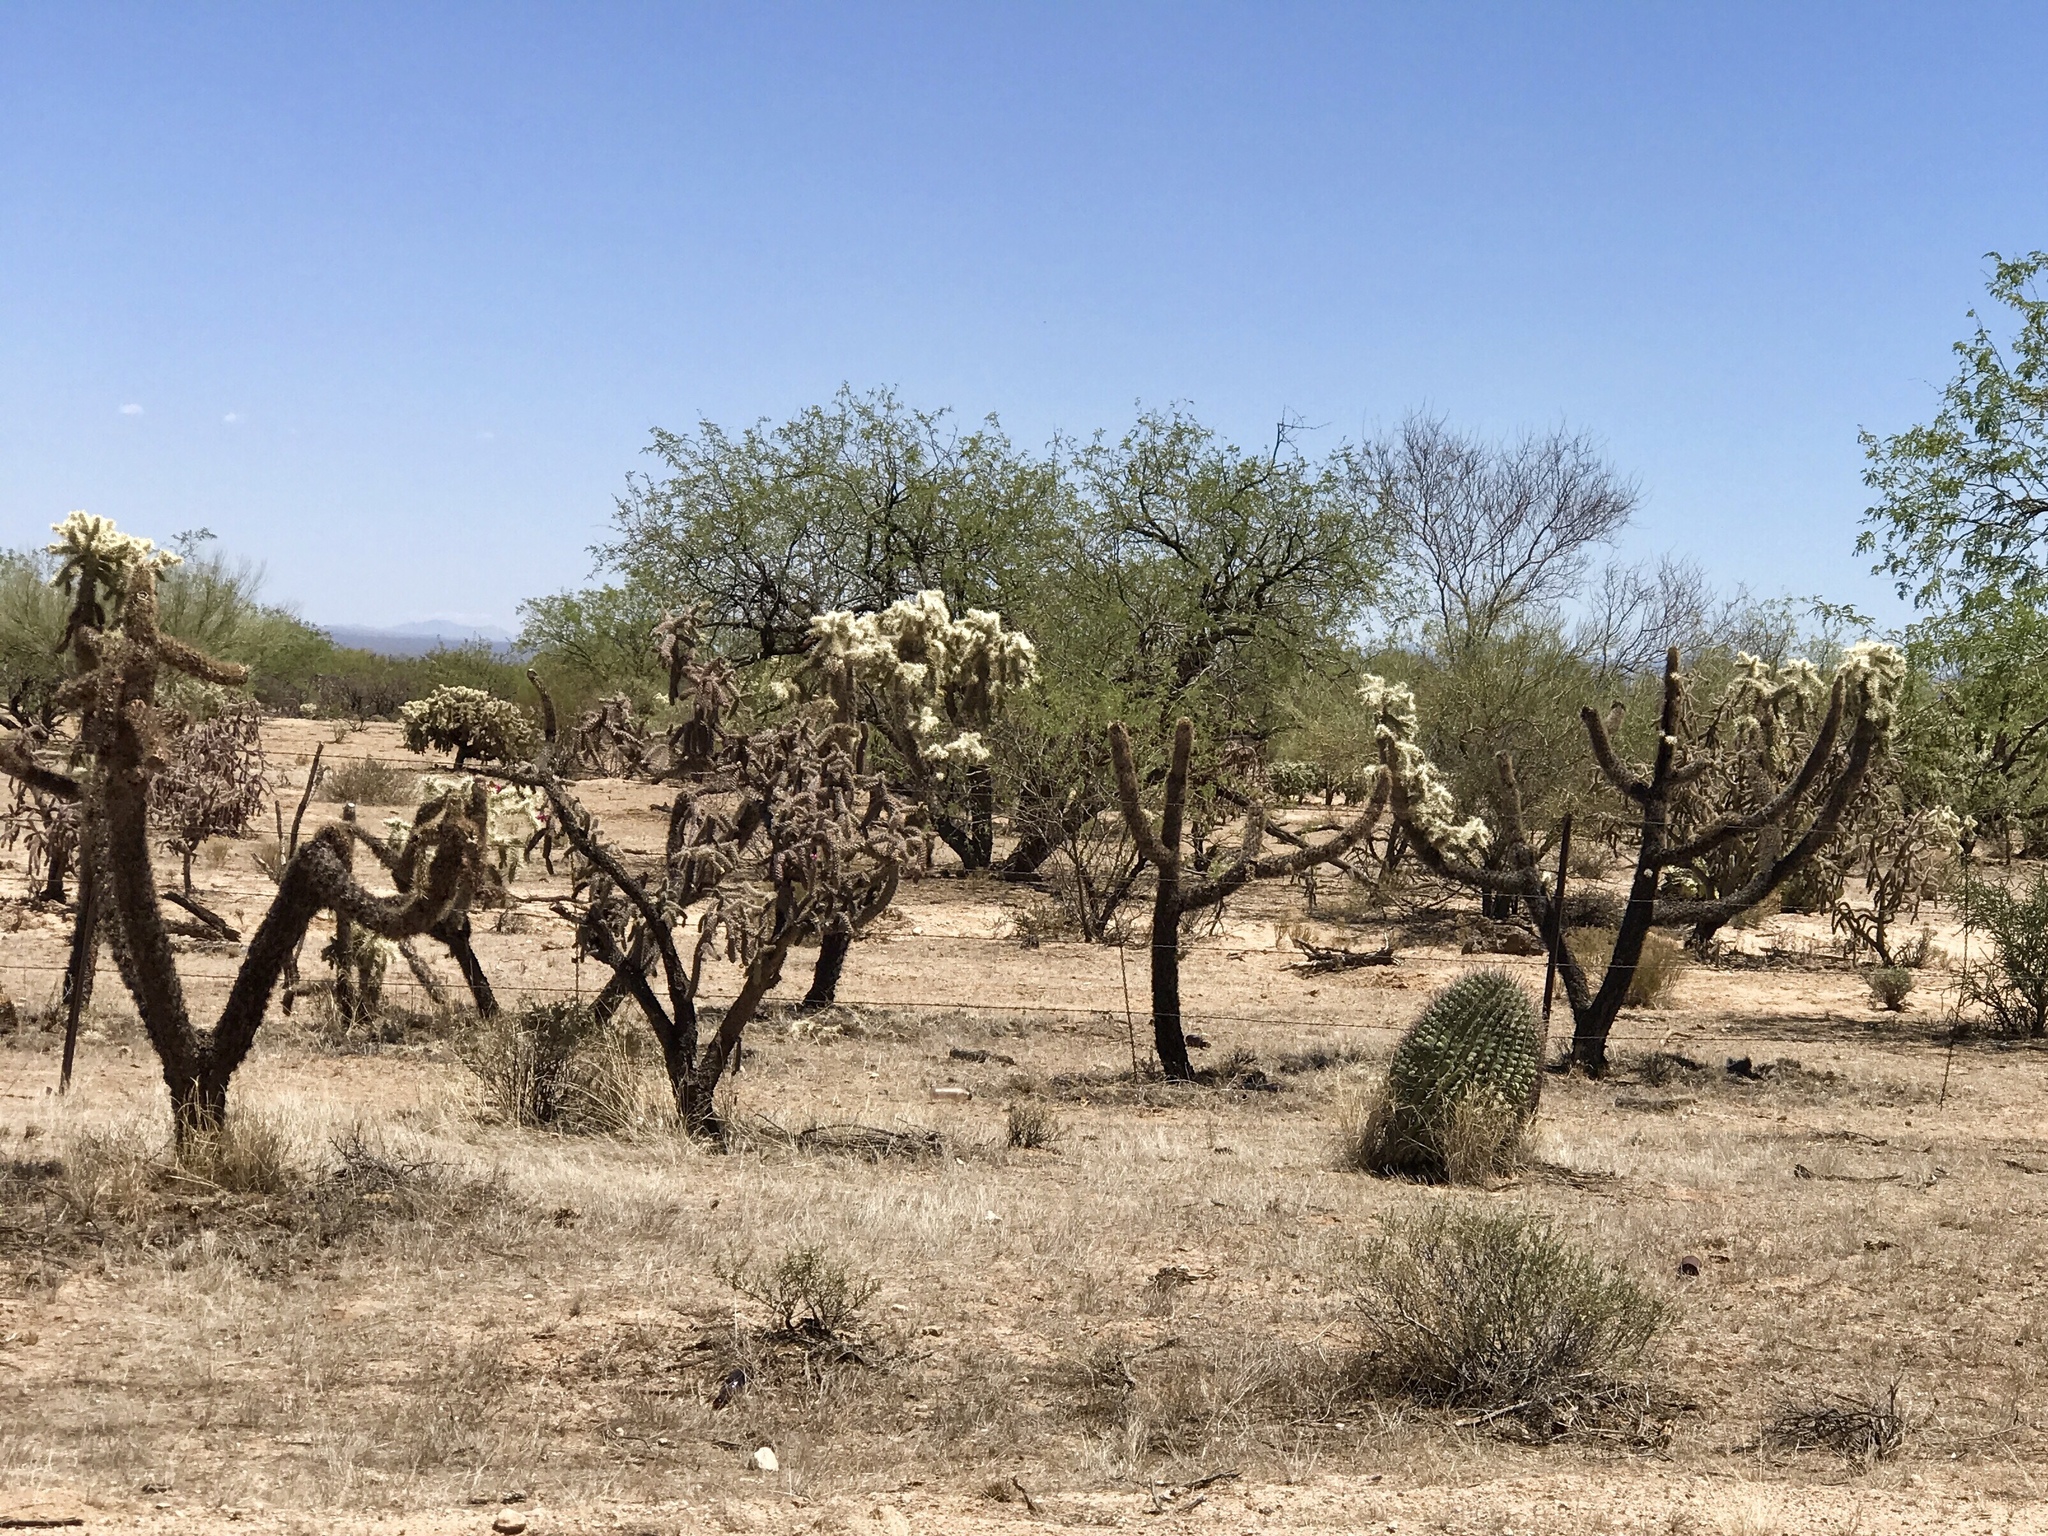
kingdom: Plantae
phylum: Tracheophyta
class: Magnoliopsida
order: Caryophyllales
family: Cactaceae
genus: Cylindropuntia
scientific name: Cylindropuntia fulgida
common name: Jumping cholla
